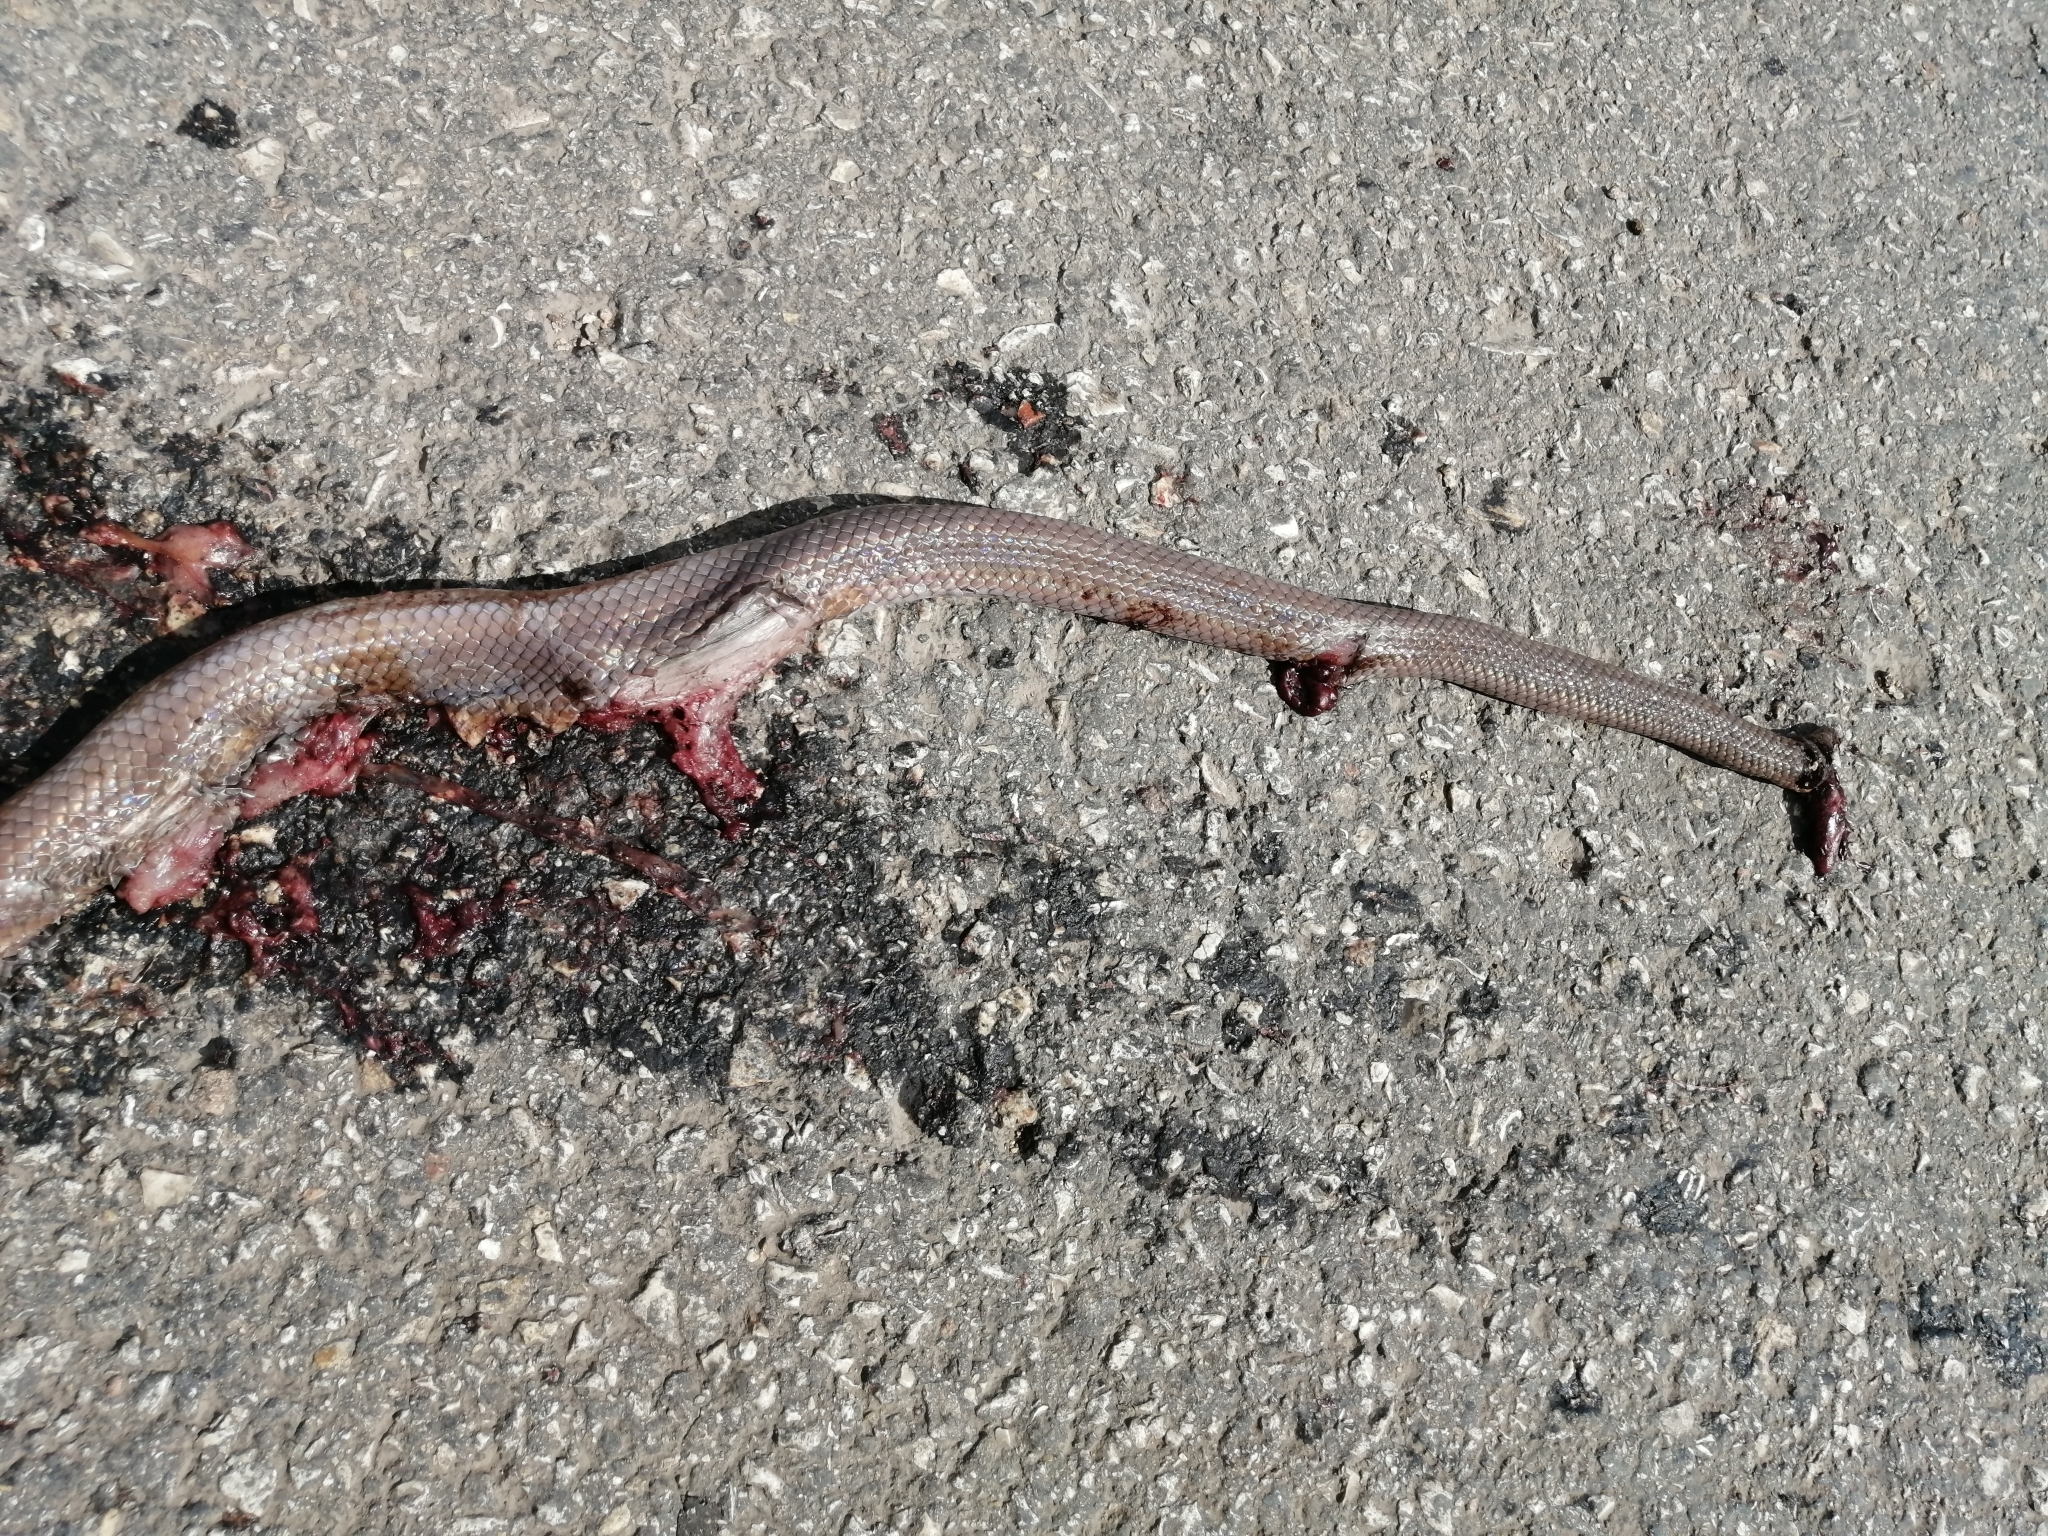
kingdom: Animalia
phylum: Chordata
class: Squamata
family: Colubridae
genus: Stenorrhina
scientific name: Stenorrhina freminvillei
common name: Blood snake
